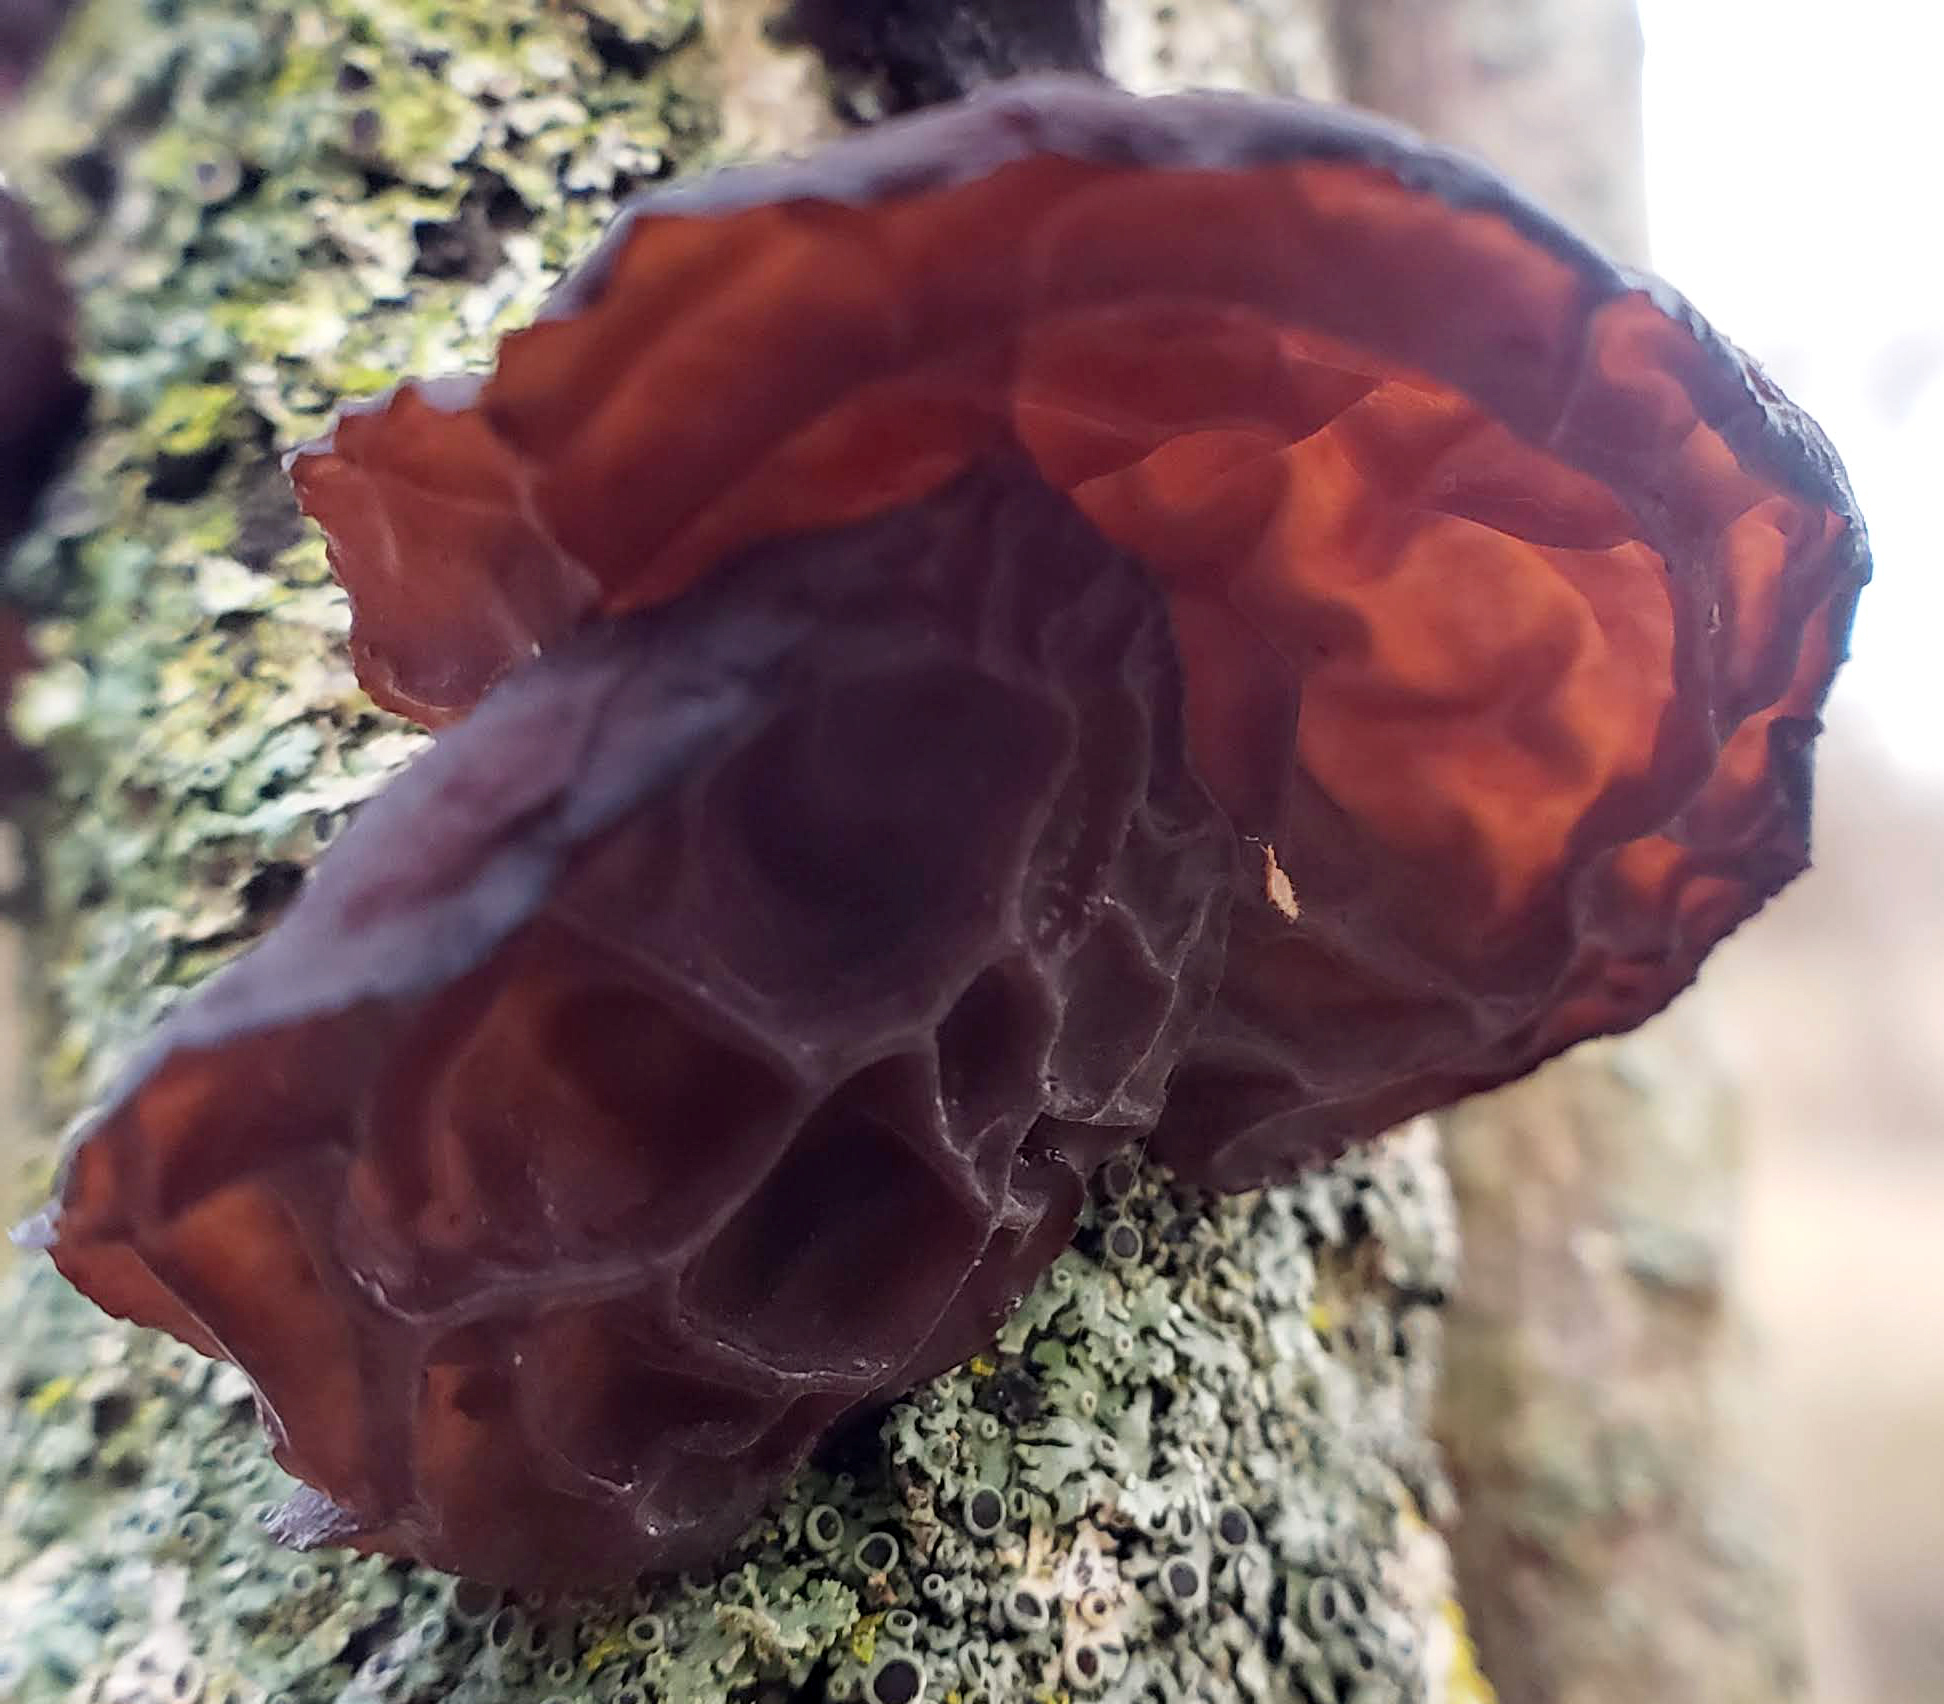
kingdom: Fungi
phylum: Basidiomycota
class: Agaricomycetes
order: Auriculariales
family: Auriculariaceae
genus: Auricularia
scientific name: Auricularia
